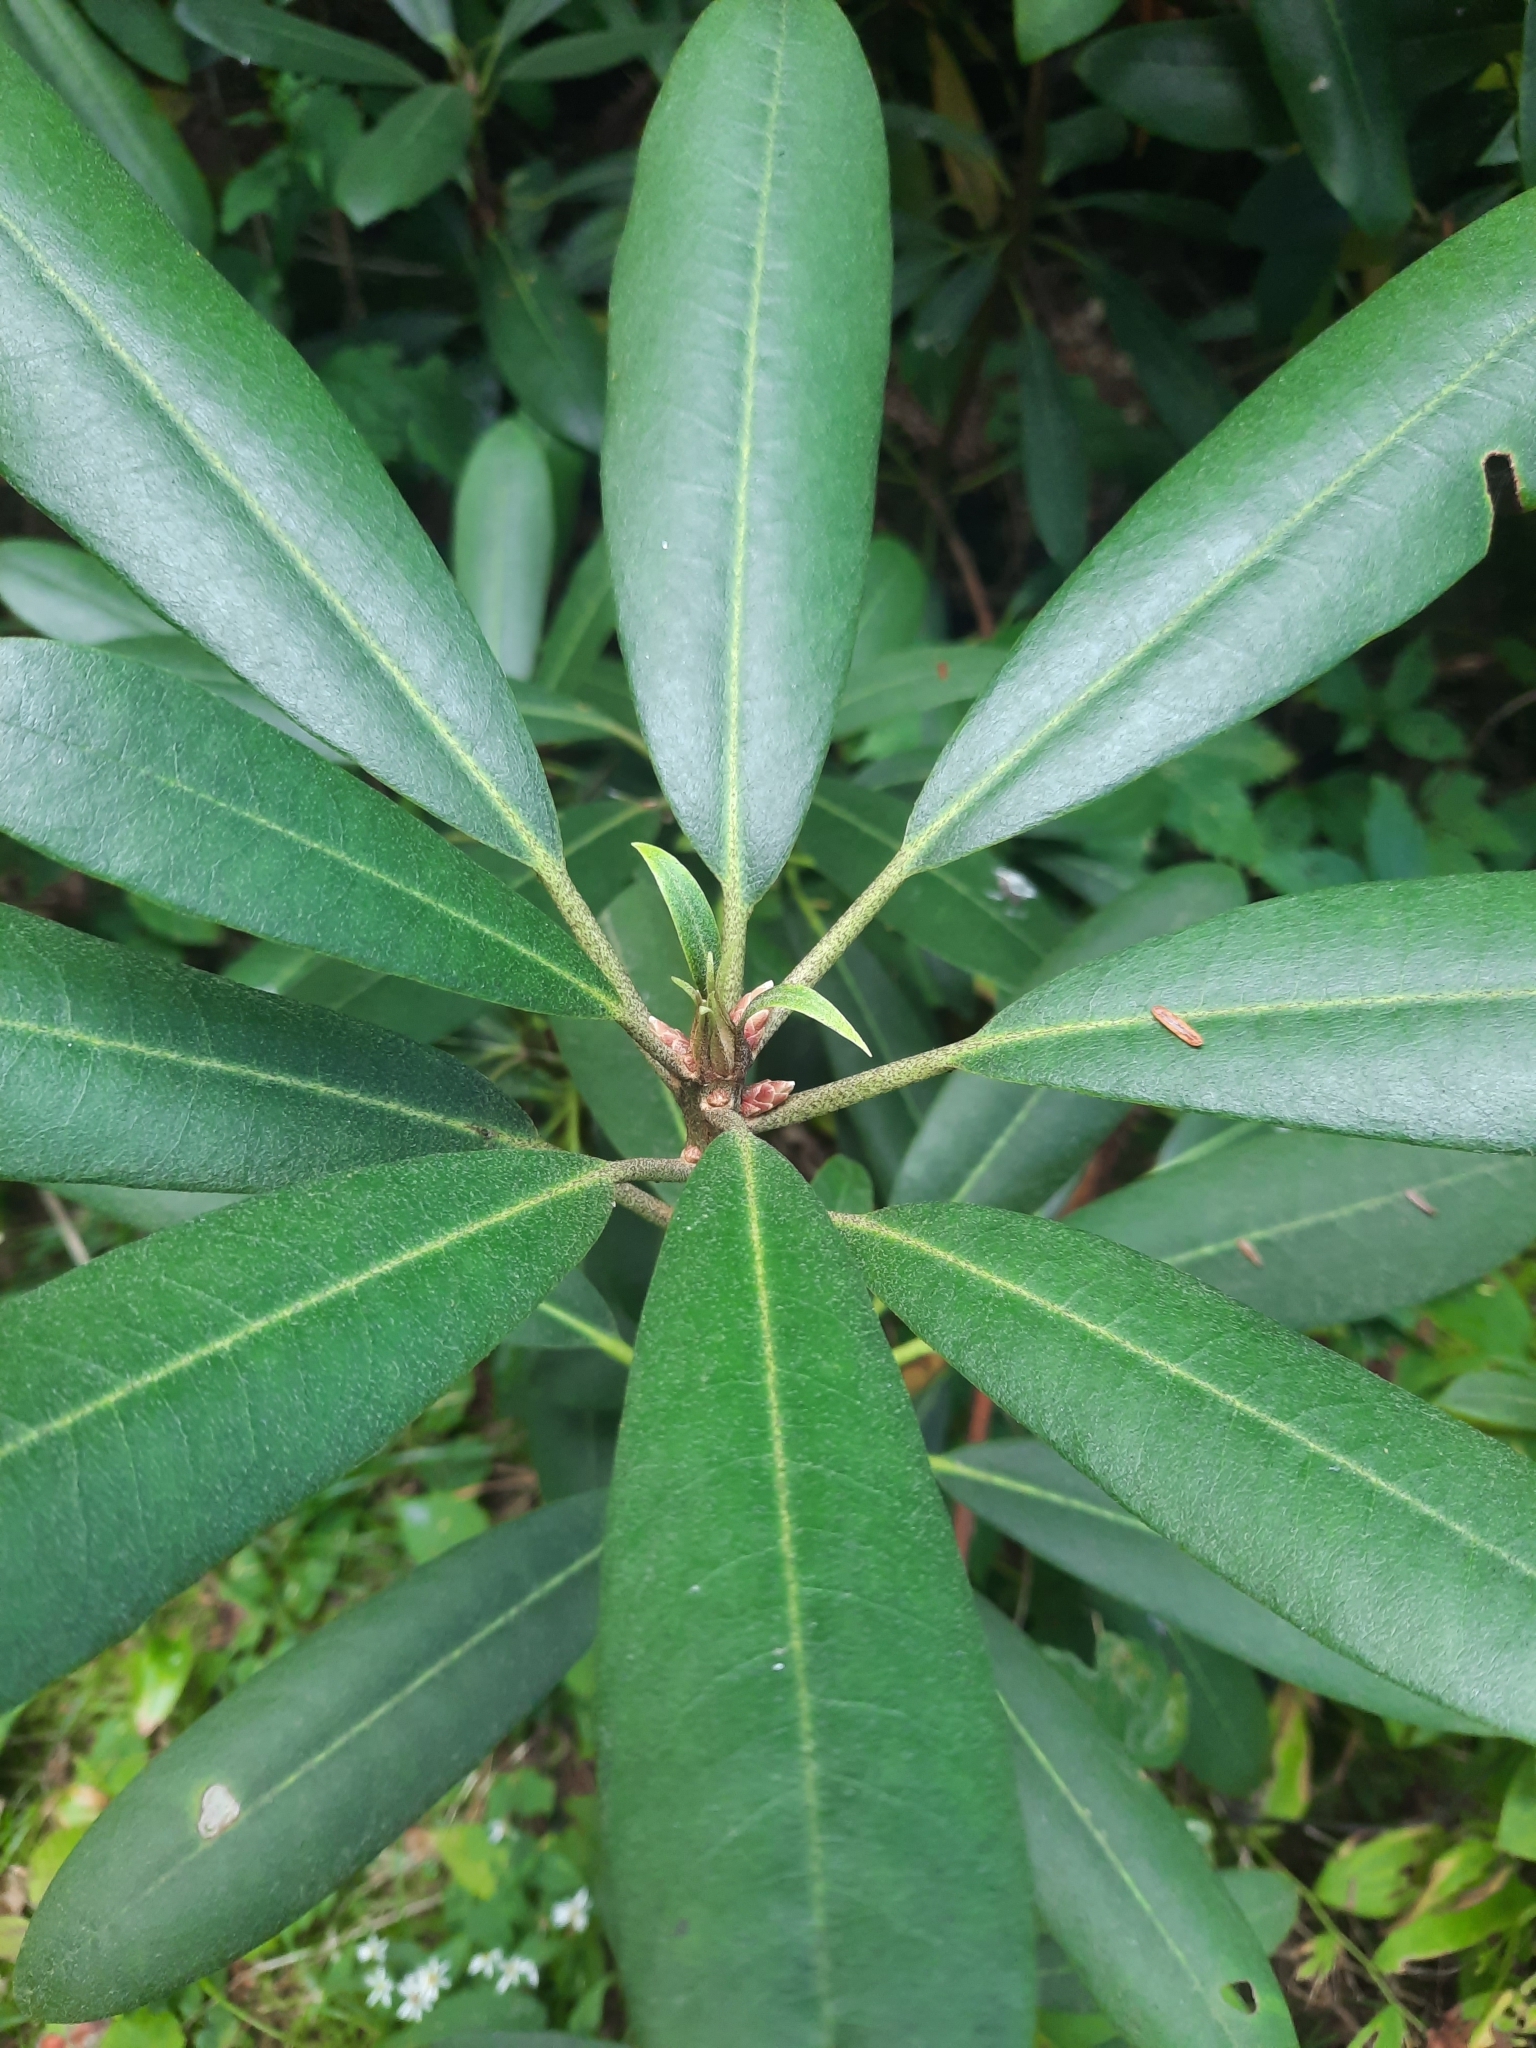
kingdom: Plantae
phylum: Tracheophyta
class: Magnoliopsida
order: Ericales
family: Ericaceae
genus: Rhododendron
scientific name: Rhododendron maximum
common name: Great rhododendron
